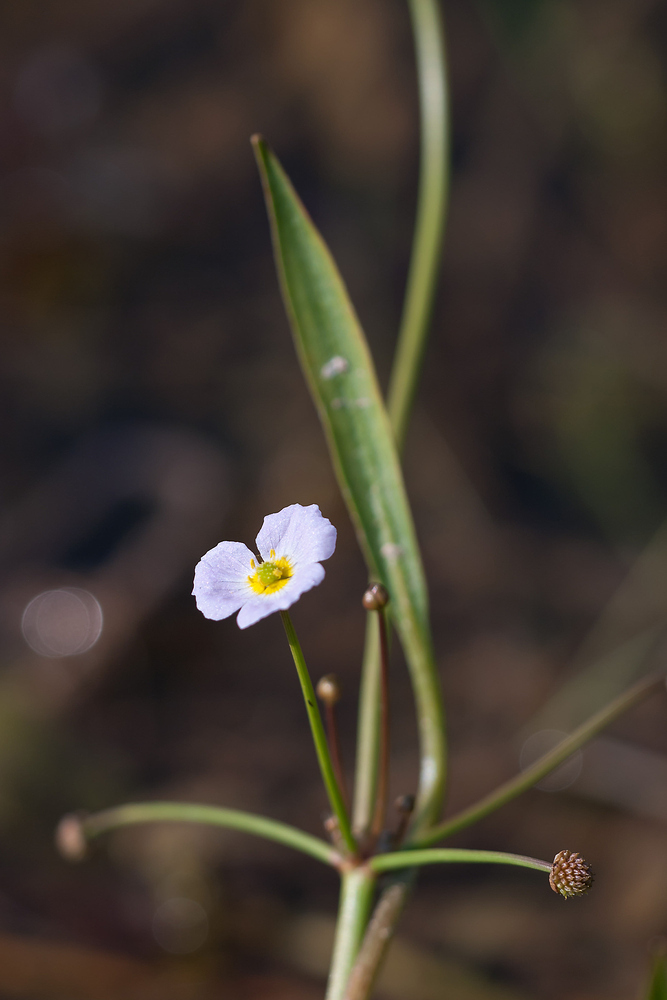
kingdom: Plantae
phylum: Tracheophyta
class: Liliopsida
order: Alismatales
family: Alismataceae
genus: Baldellia
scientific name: Baldellia ranunculoides
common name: Lesser water-plantain
